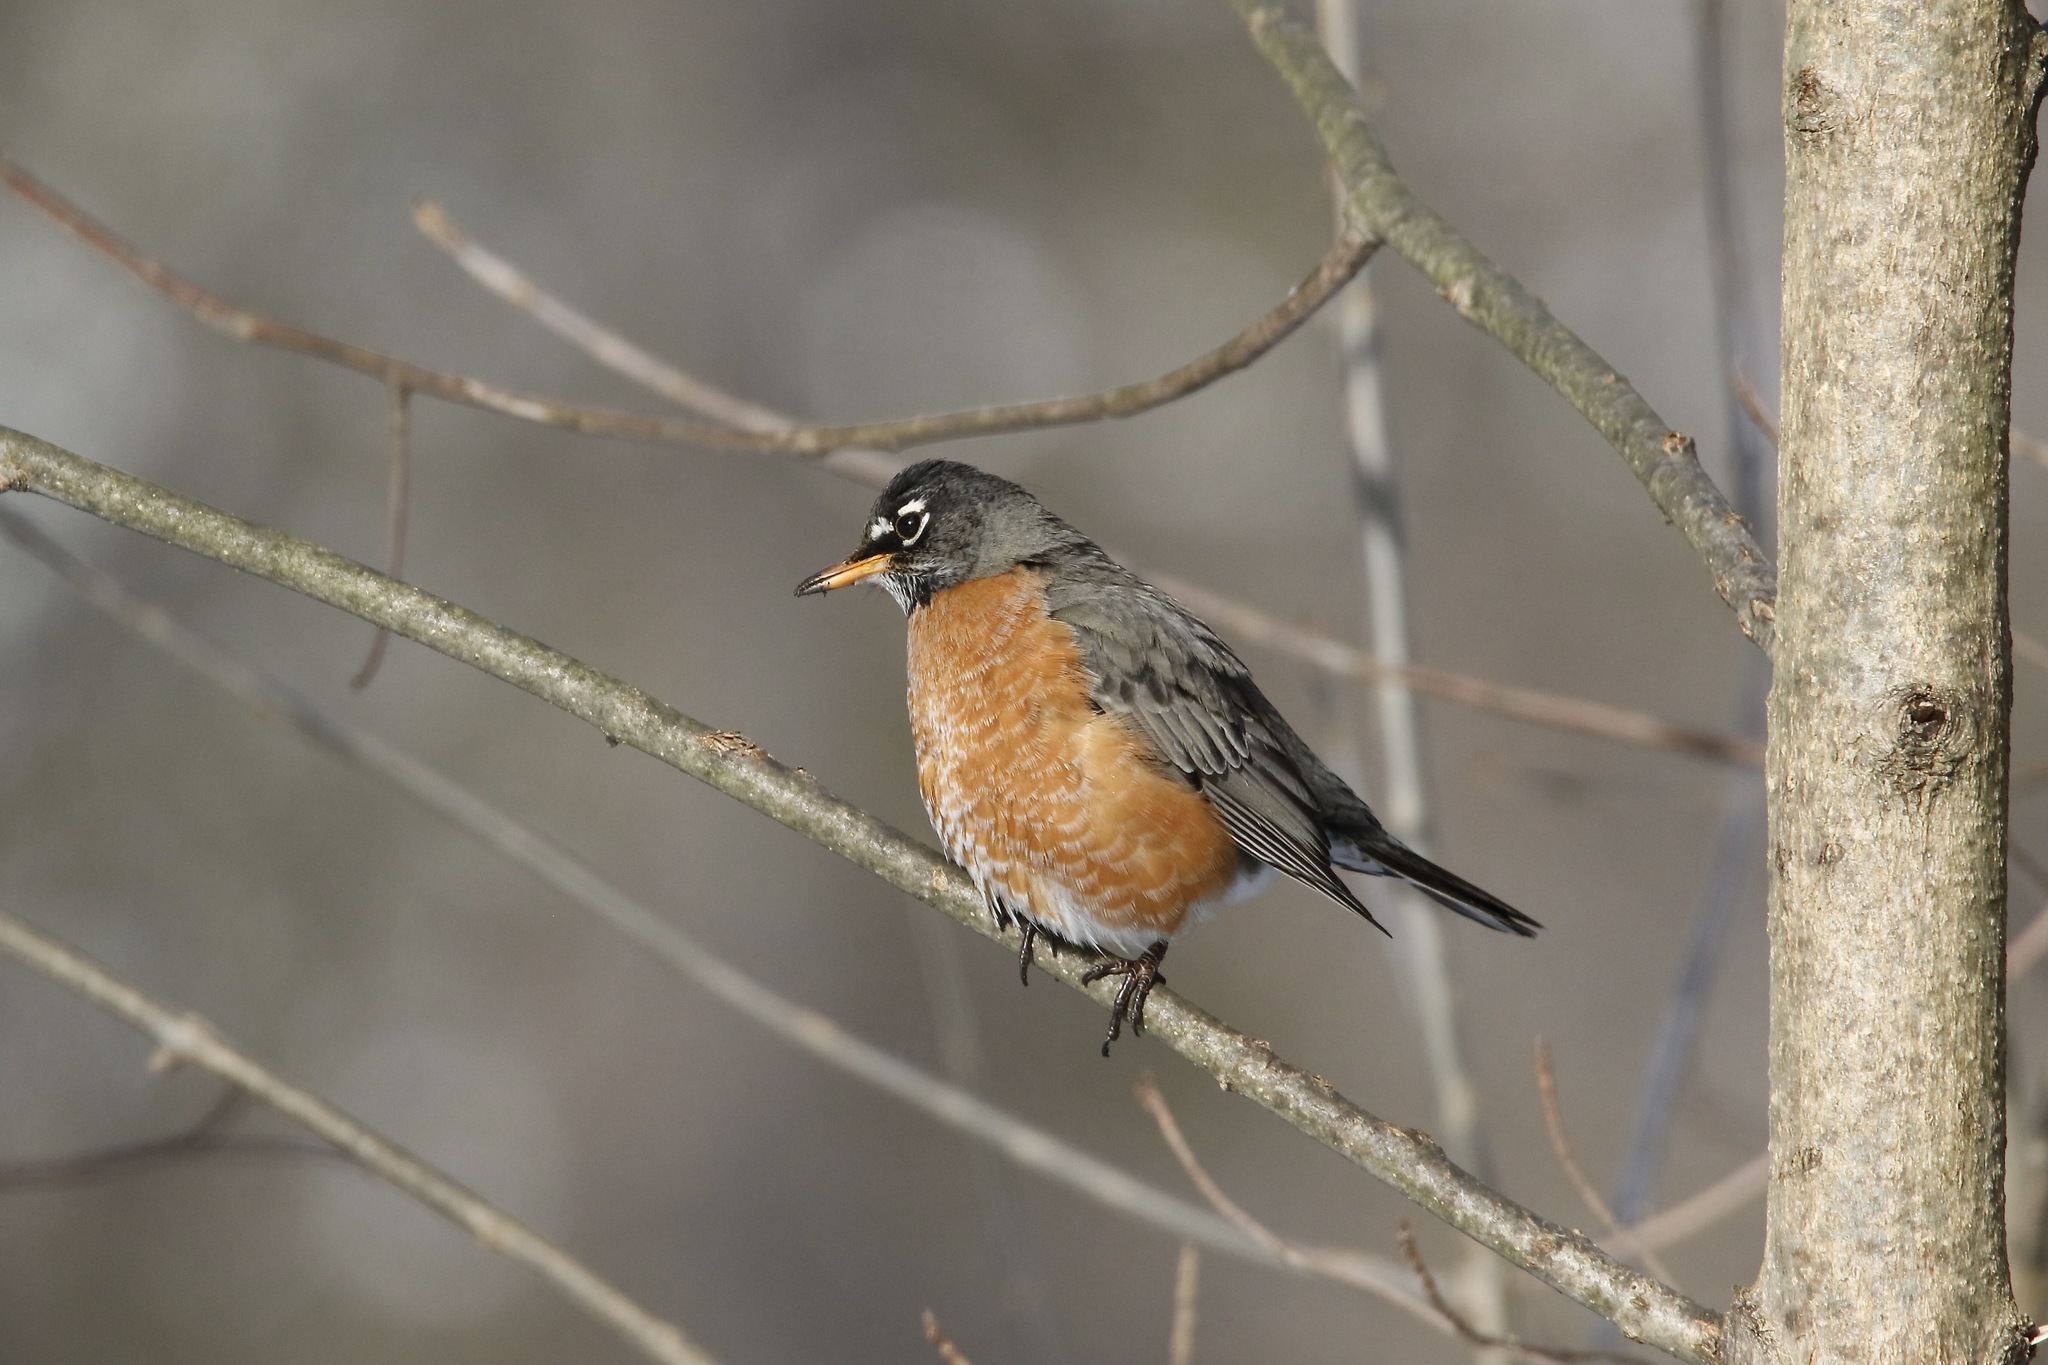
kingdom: Animalia
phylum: Chordata
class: Aves
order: Passeriformes
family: Turdidae
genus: Turdus
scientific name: Turdus migratorius
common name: American robin
